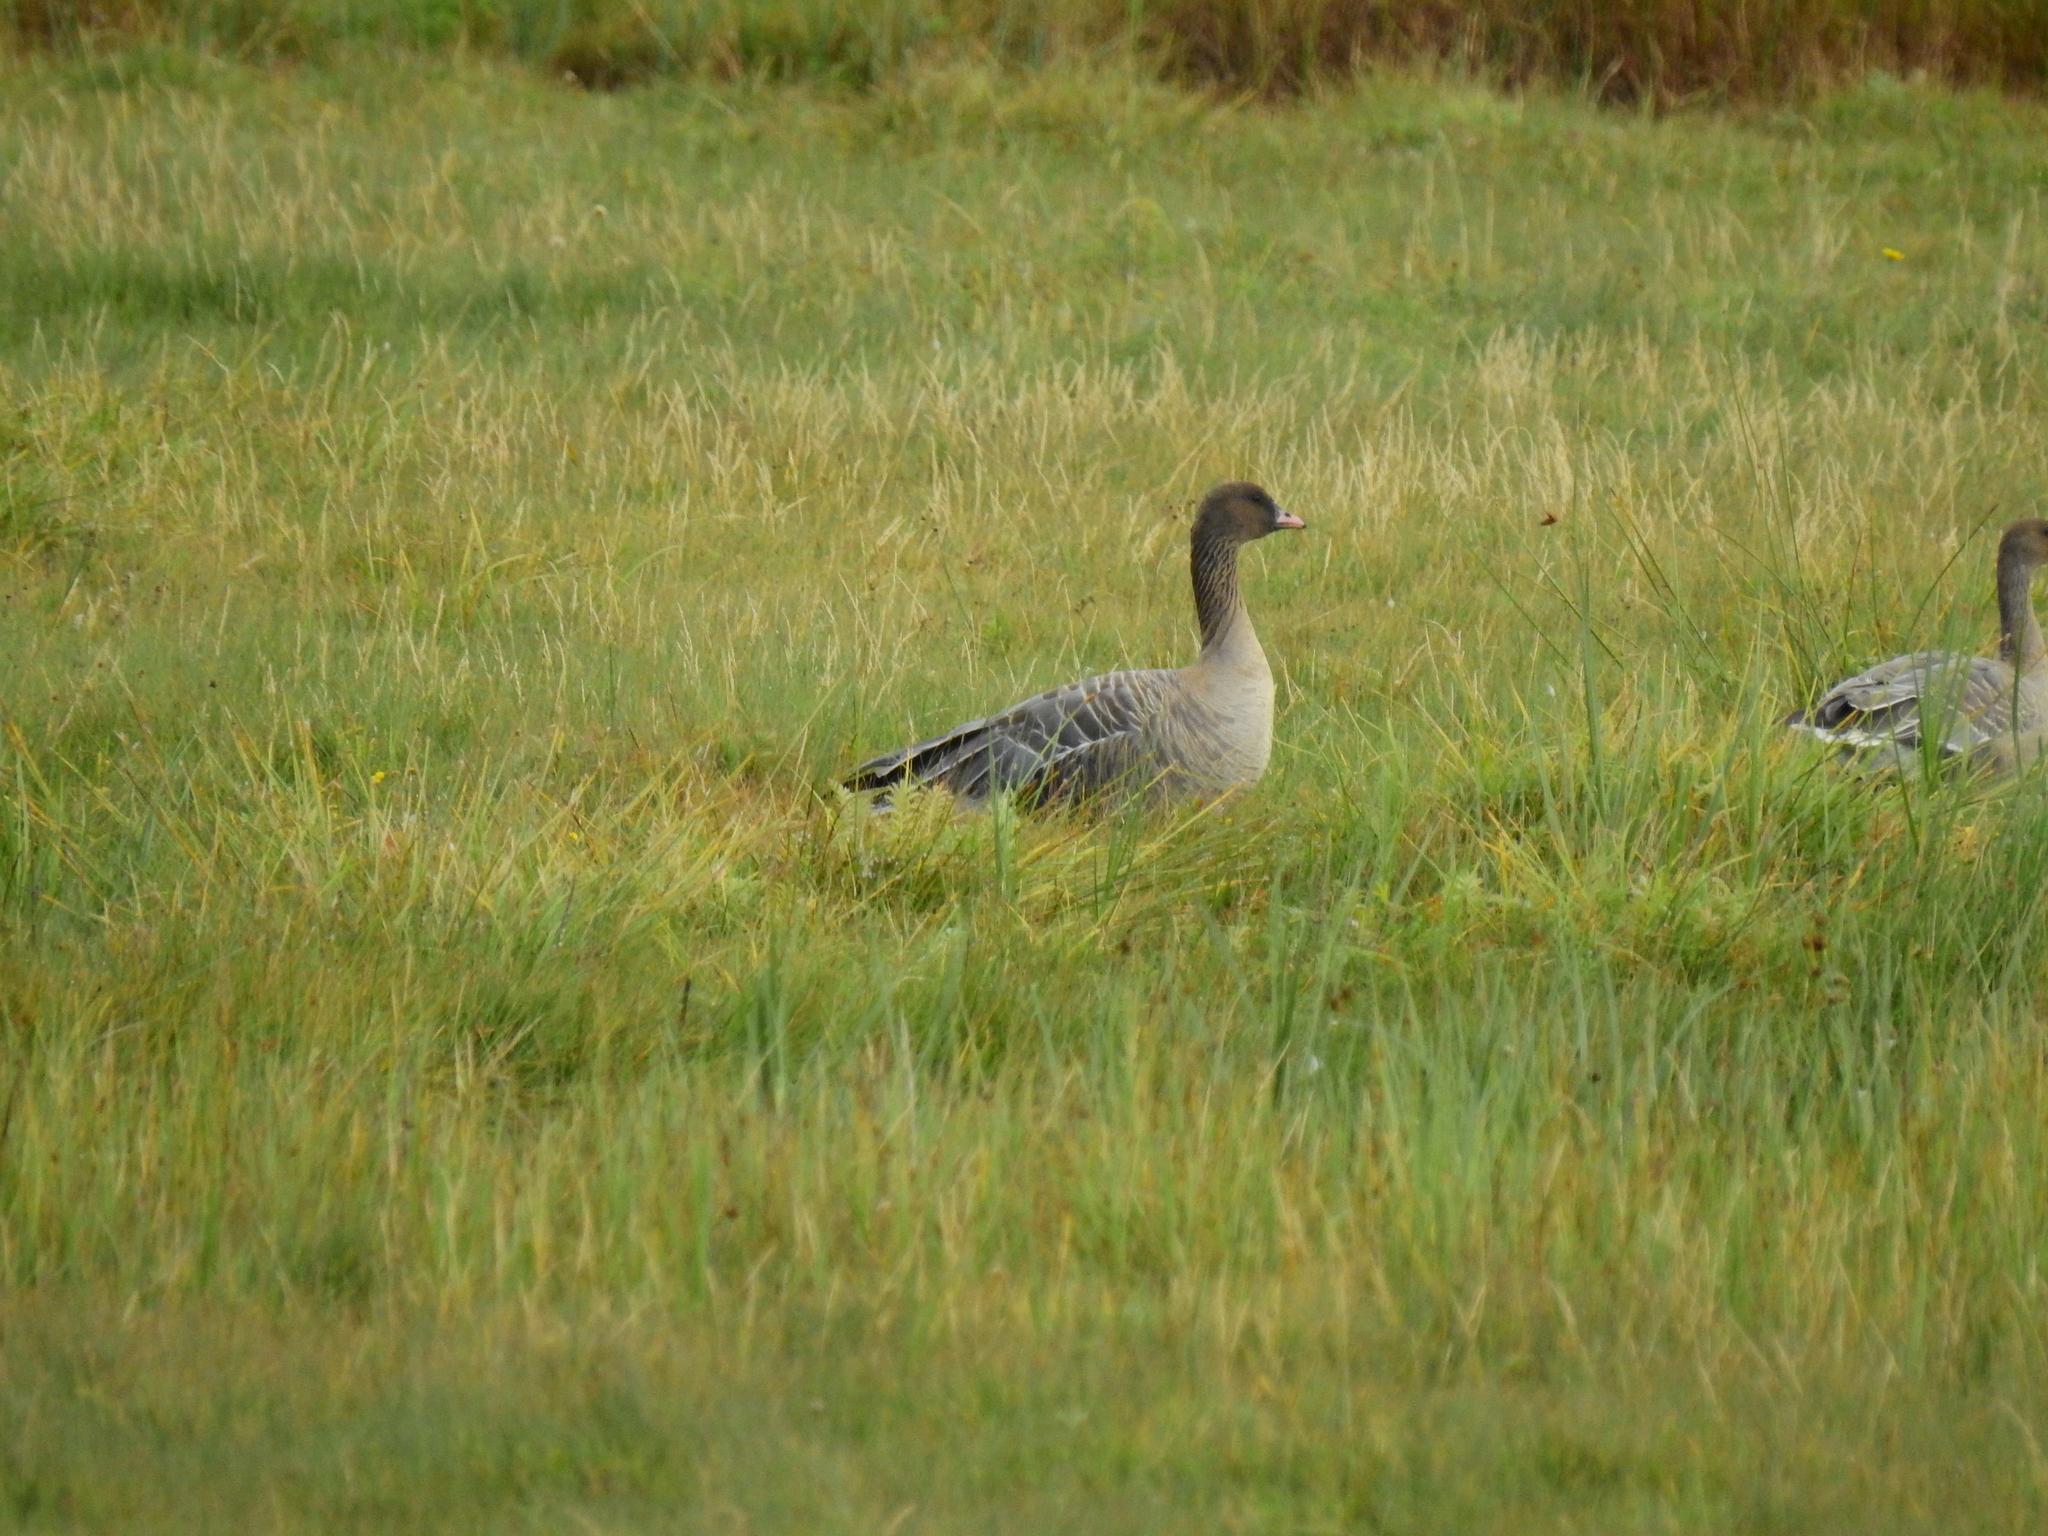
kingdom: Animalia
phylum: Chordata
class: Aves
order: Anseriformes
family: Anatidae
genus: Anser
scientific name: Anser brachyrhynchus
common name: Pink-footed goose
